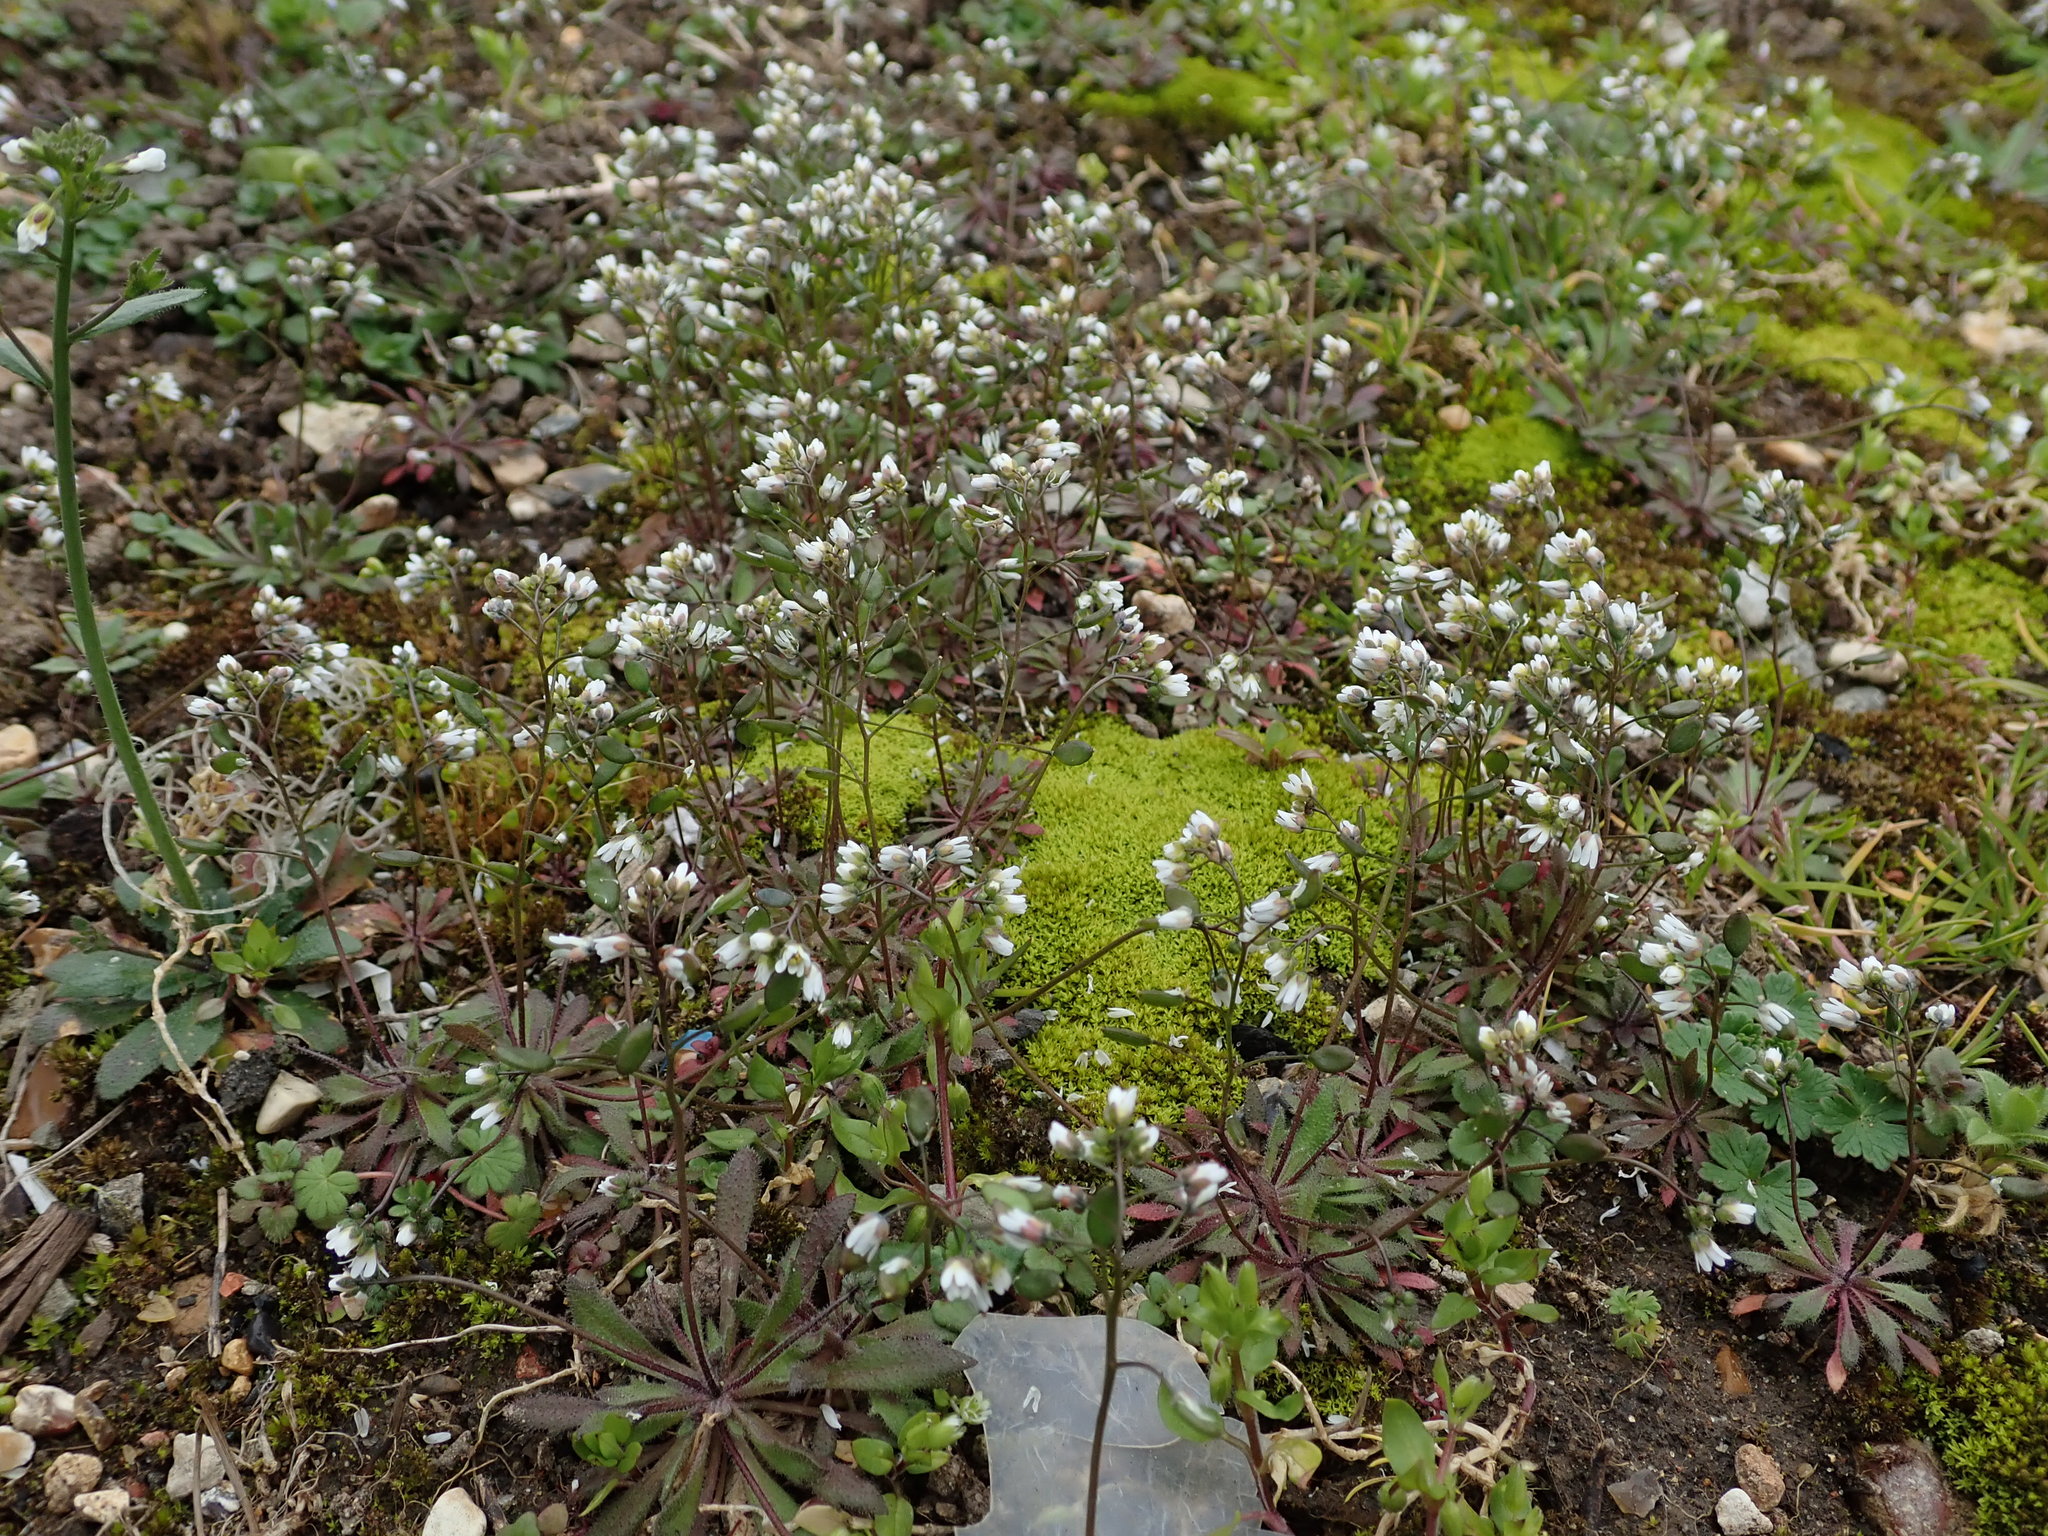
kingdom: Plantae
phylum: Tracheophyta
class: Magnoliopsida
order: Brassicales
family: Brassicaceae
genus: Draba
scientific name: Draba verna
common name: Spring draba
